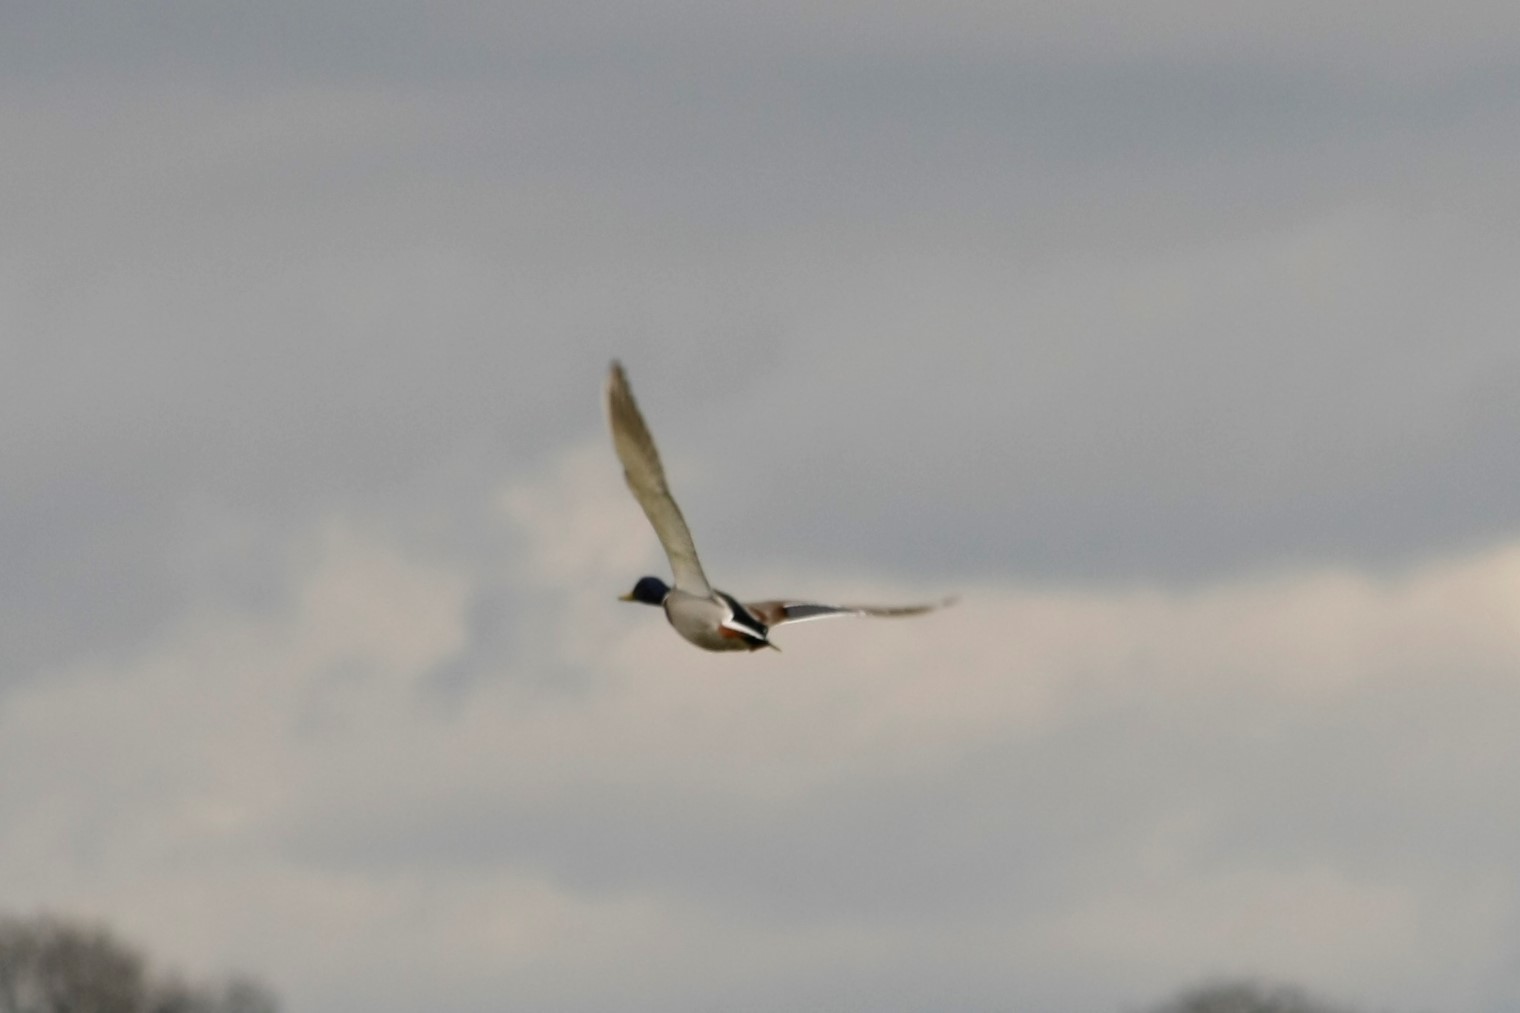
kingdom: Animalia
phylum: Chordata
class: Aves
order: Anseriformes
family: Anatidae
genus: Anas
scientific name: Anas platyrhynchos
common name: Mallard
